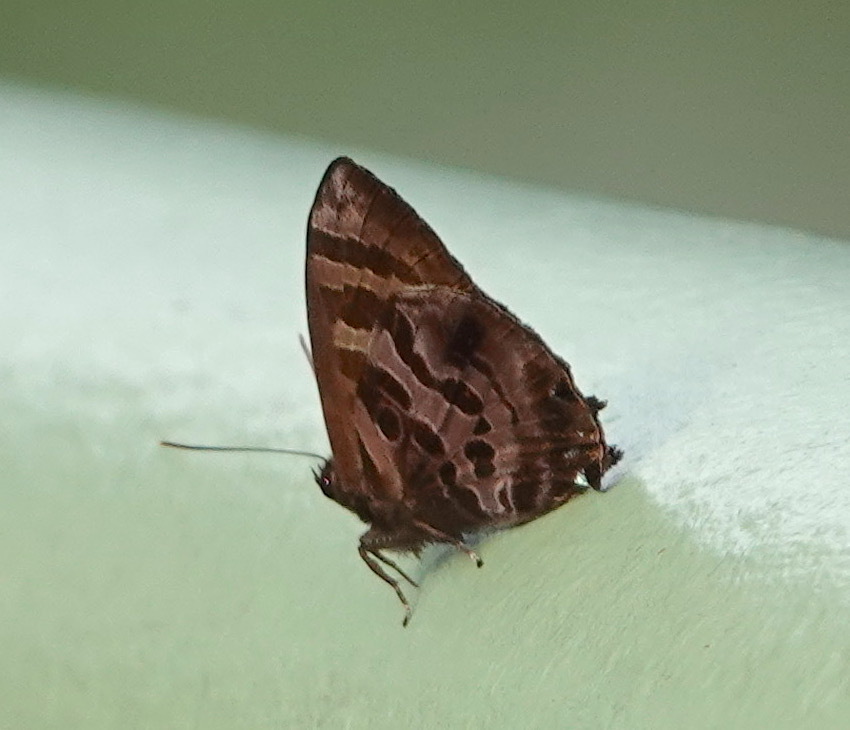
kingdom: Animalia
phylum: Arthropoda
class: Insecta
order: Lepidoptera
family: Lycaenidae
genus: Flos
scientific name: Flos
